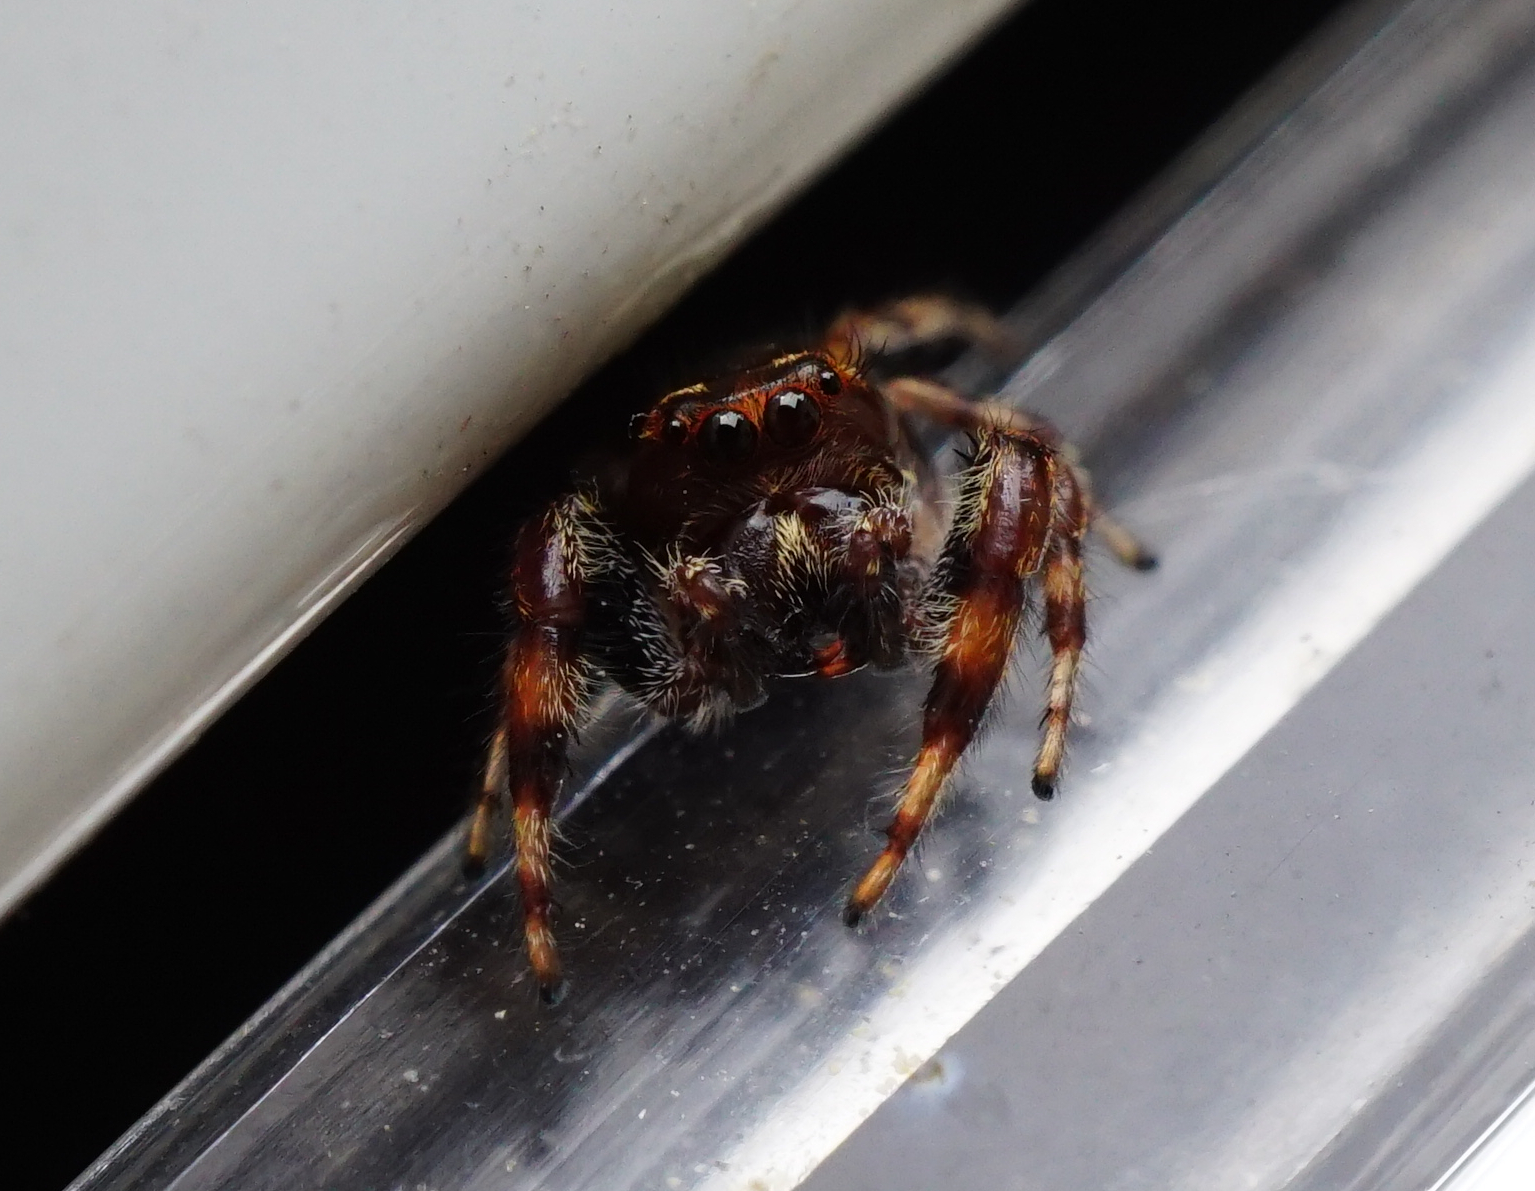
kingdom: Animalia
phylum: Arthropoda
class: Arachnida
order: Araneae
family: Salticidae
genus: Macaroeris
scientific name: Macaroeris nidicolens
